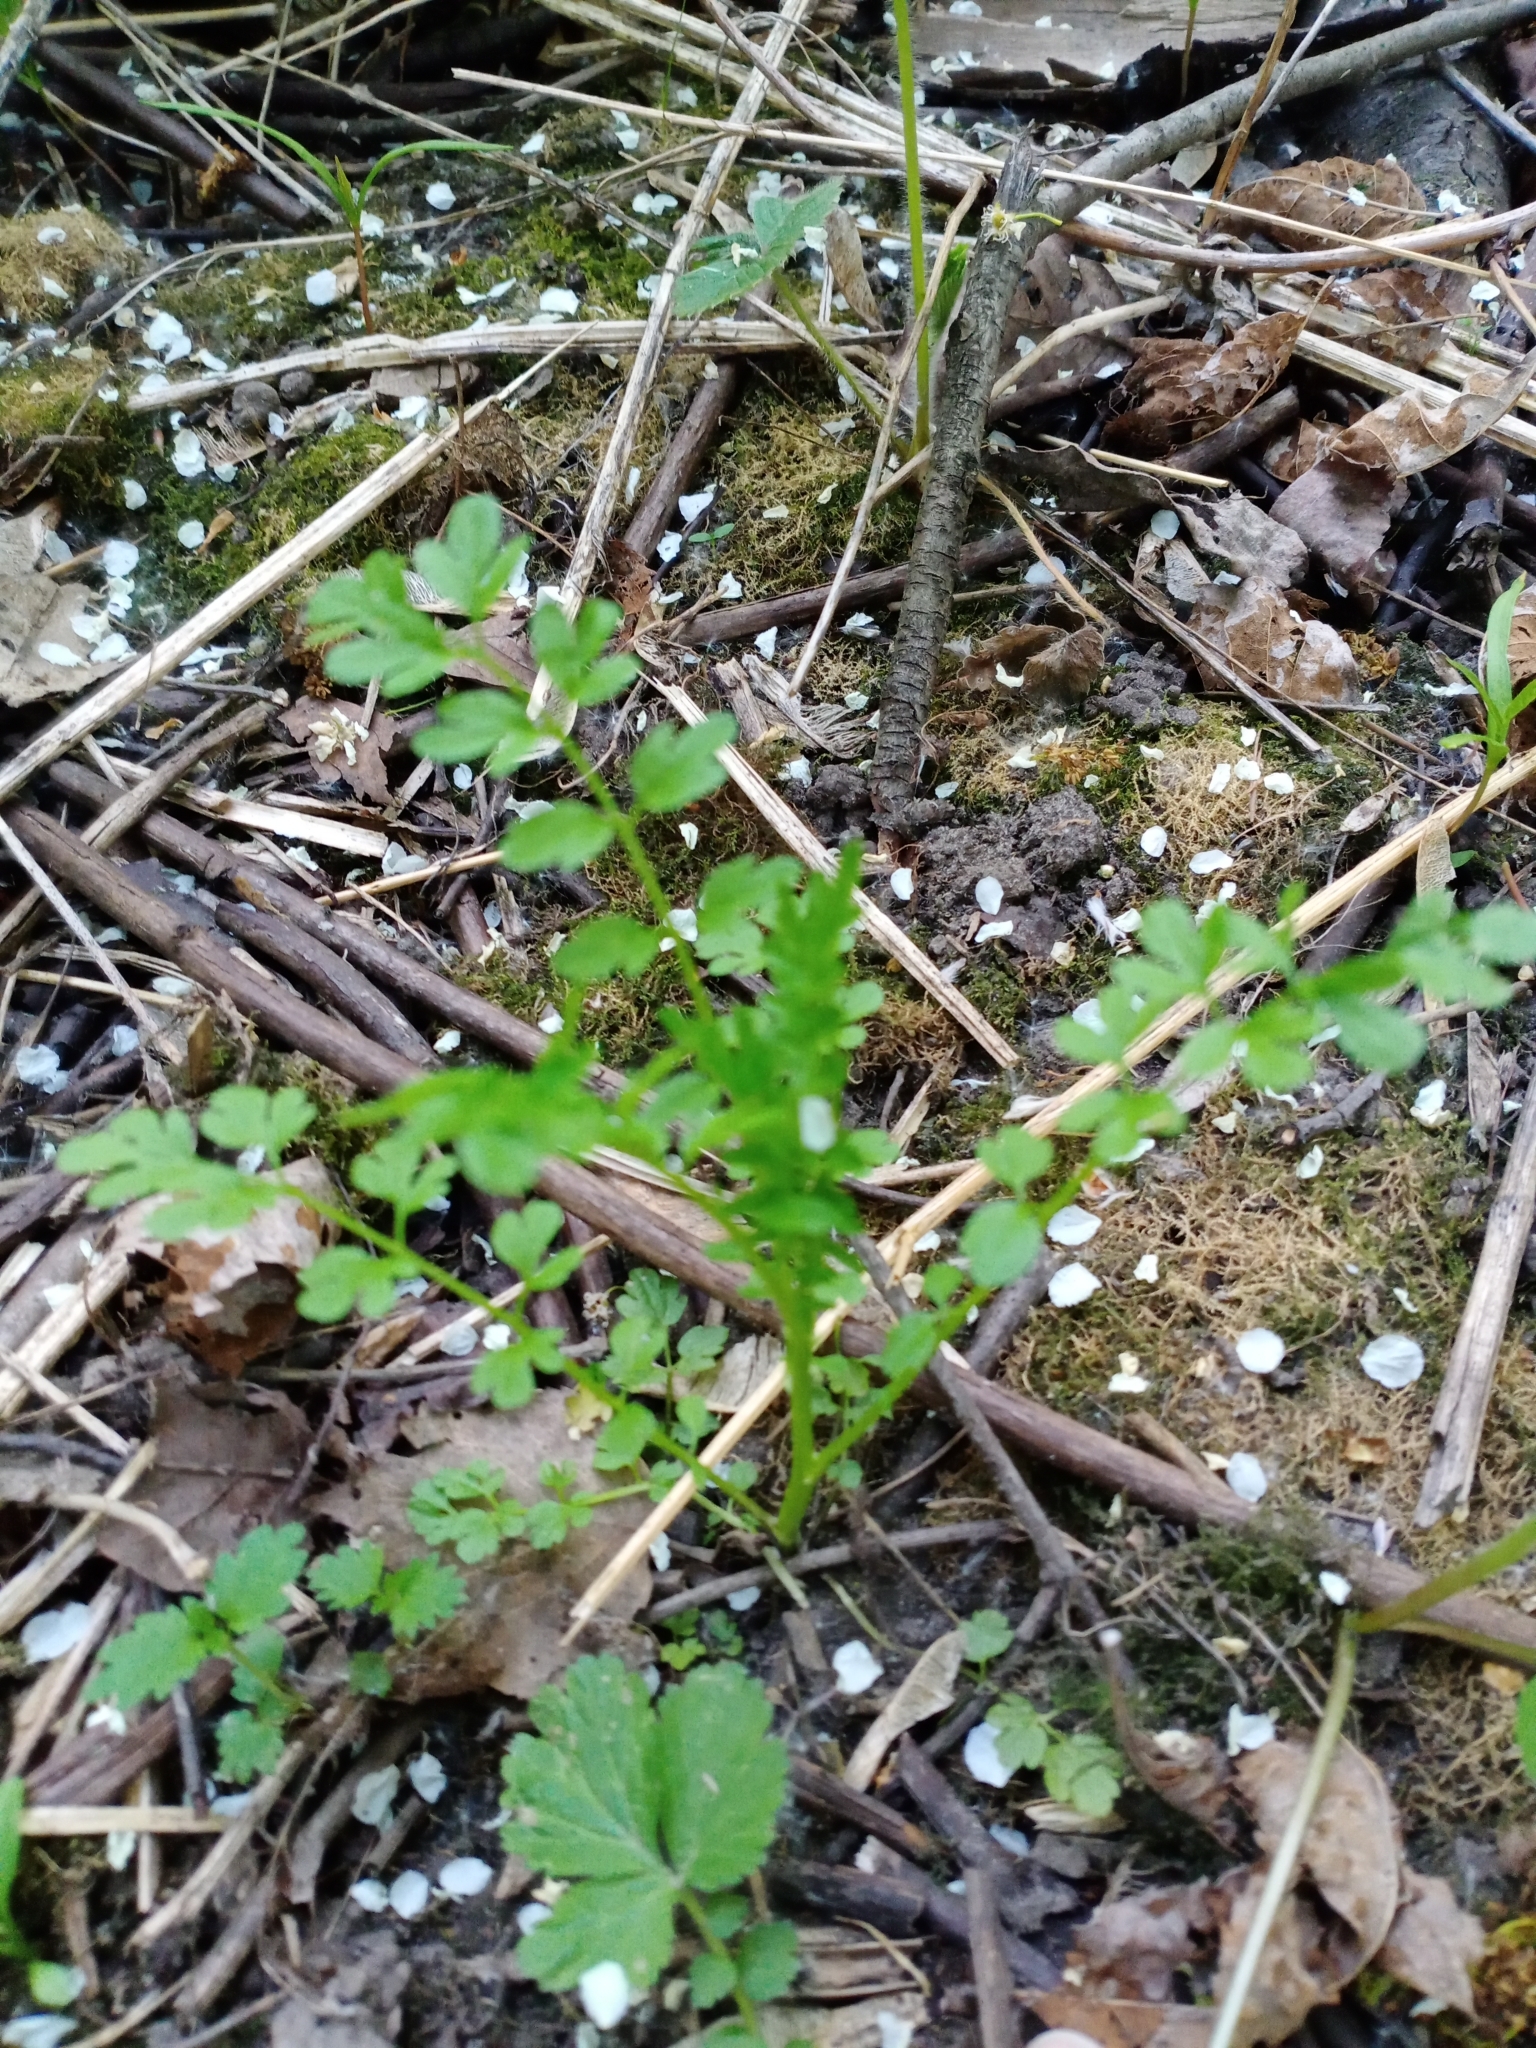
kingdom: Plantae
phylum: Tracheophyta
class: Magnoliopsida
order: Brassicales
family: Brassicaceae
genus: Cardamine
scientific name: Cardamine impatiens
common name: Narrow-leaved bitter-cress
